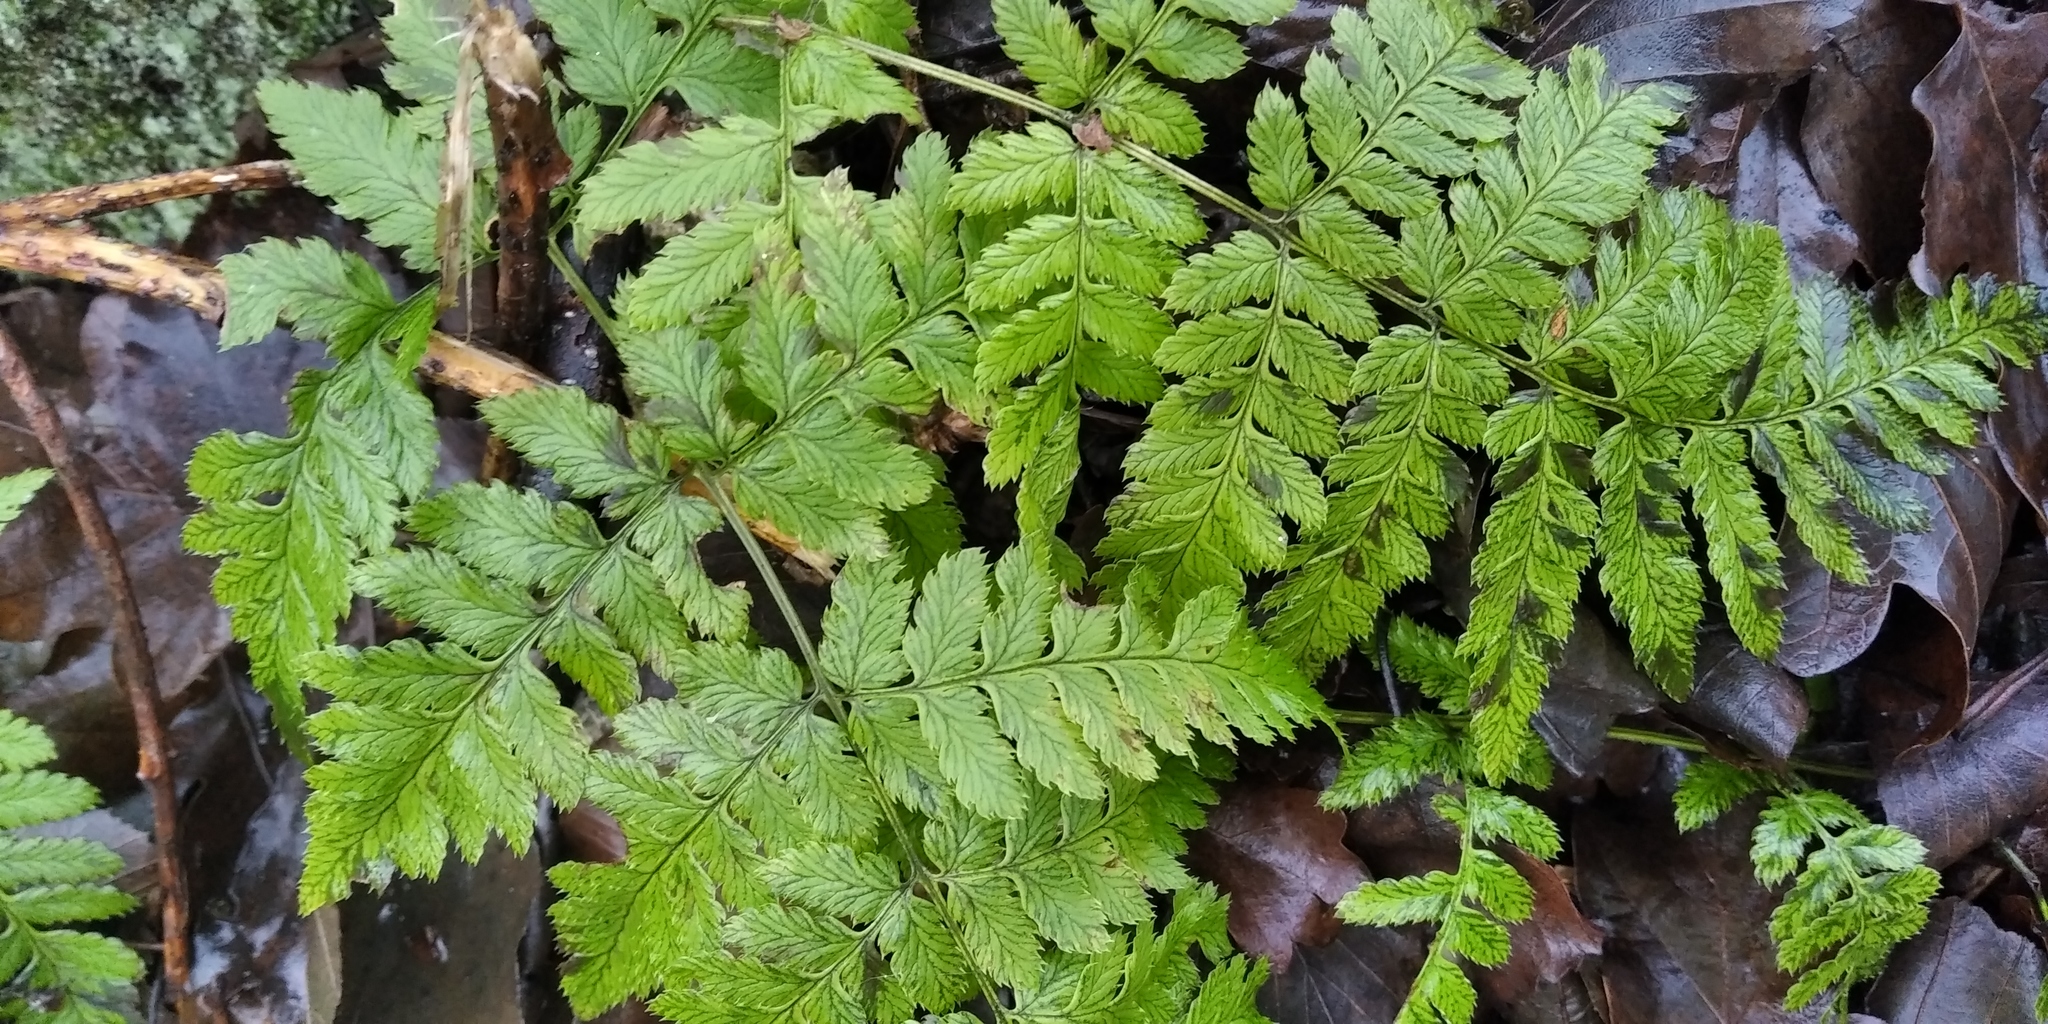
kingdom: Plantae
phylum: Tracheophyta
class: Polypodiopsida
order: Polypodiales
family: Dryopteridaceae
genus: Dryopteris
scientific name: Dryopteris carthusiana
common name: Narrow buckler-fern
